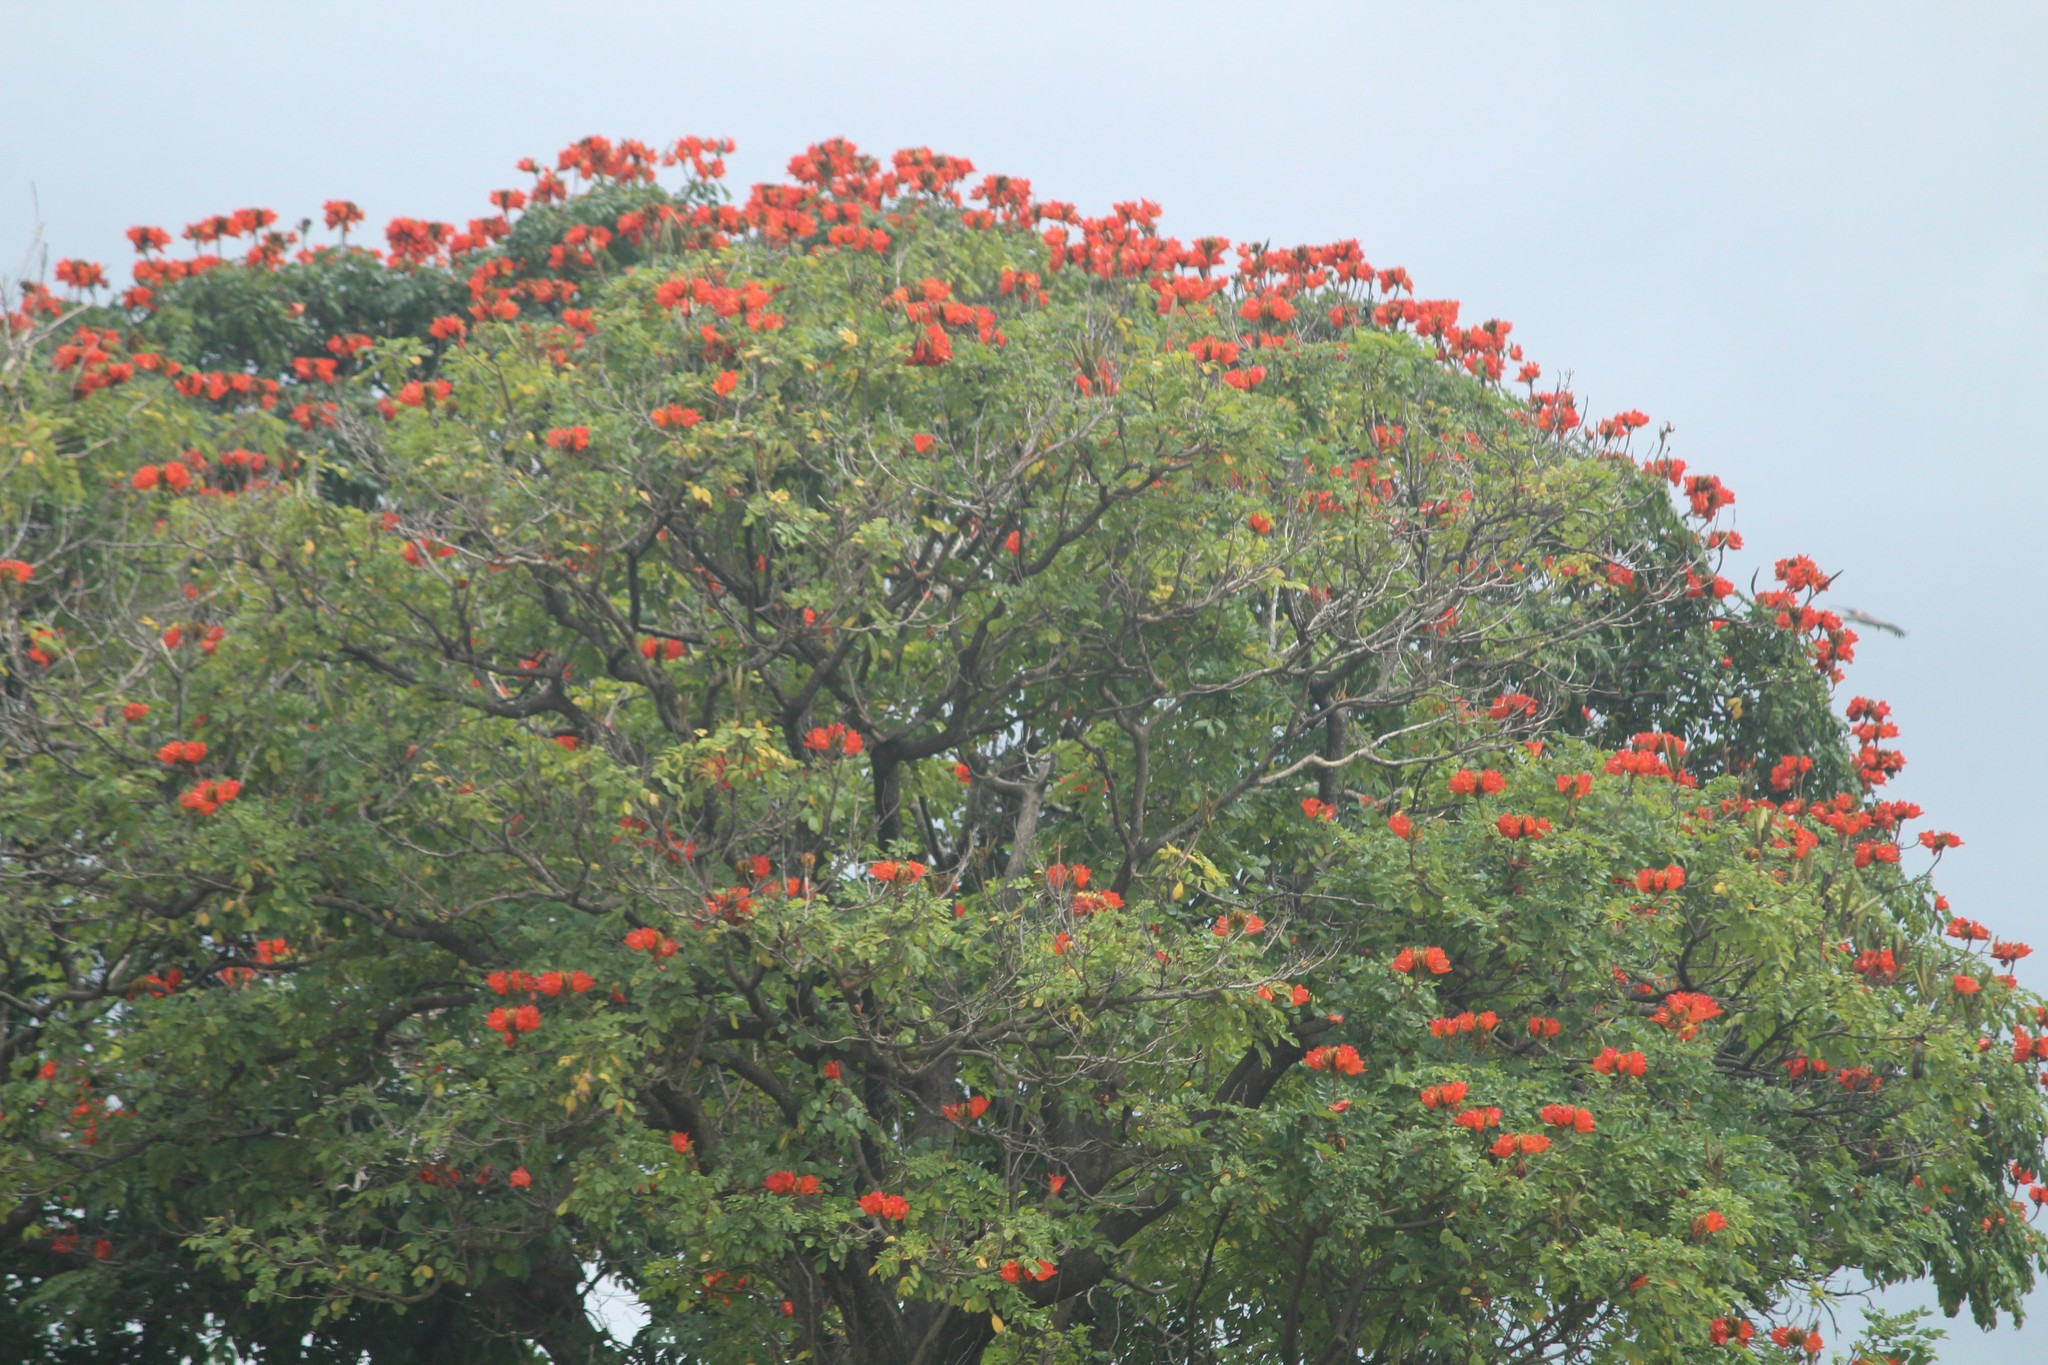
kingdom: Plantae
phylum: Tracheophyta
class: Magnoliopsida
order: Lamiales
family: Bignoniaceae
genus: Spathodea
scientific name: Spathodea campanulata
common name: African tuliptree
